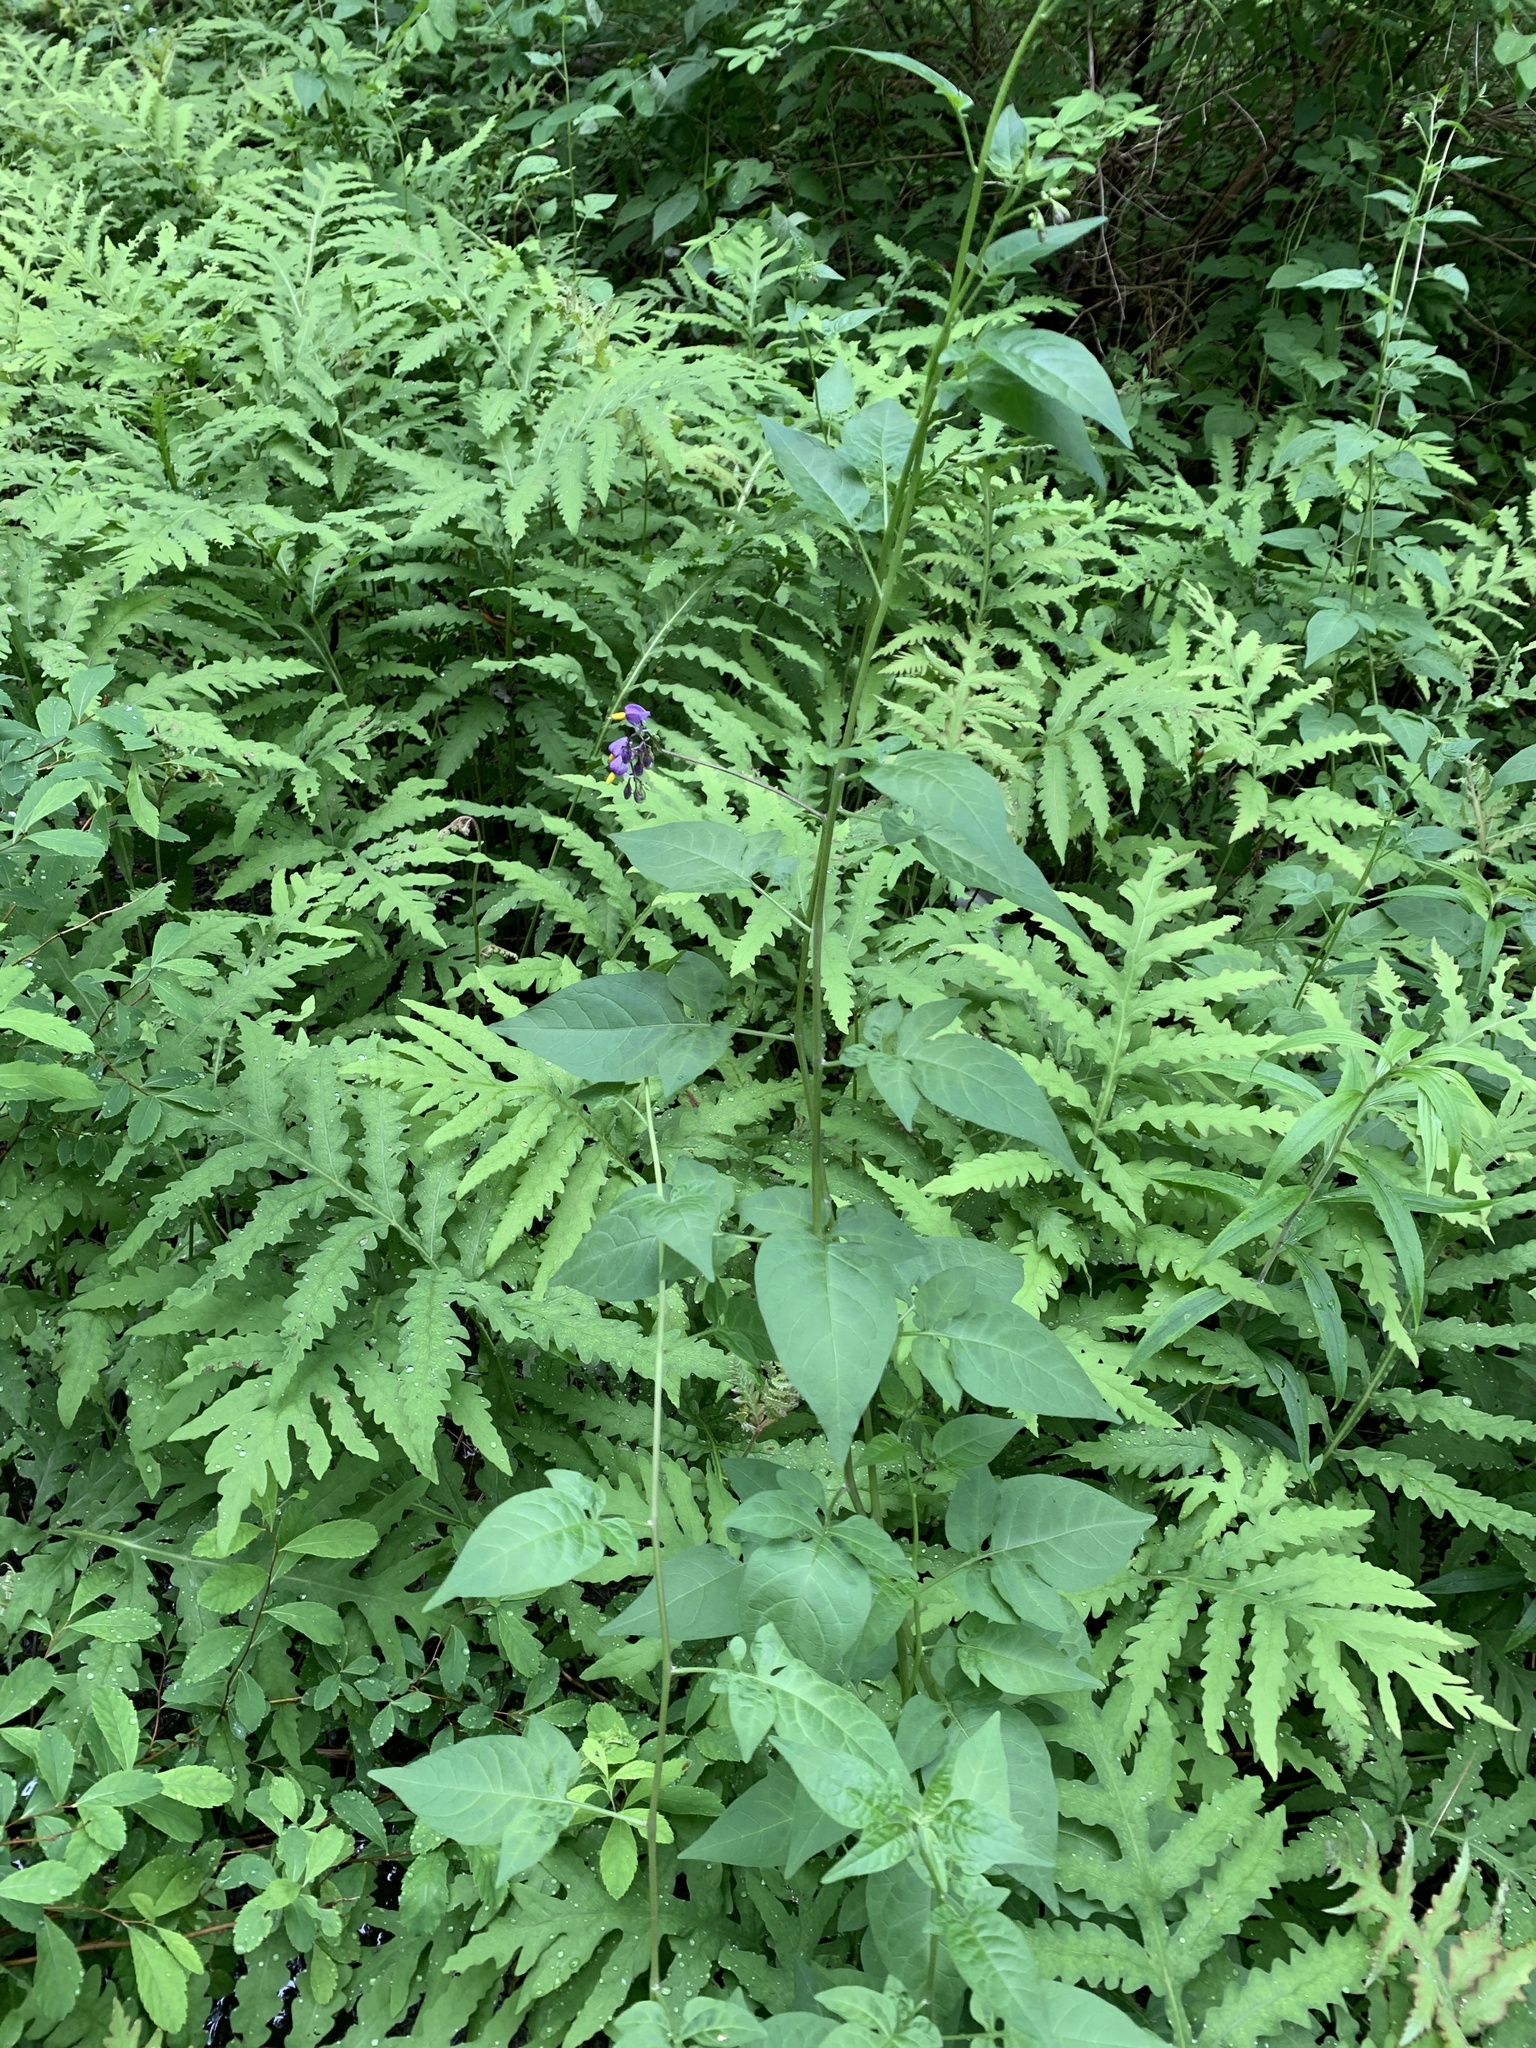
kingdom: Plantae
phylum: Tracheophyta
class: Magnoliopsida
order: Solanales
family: Solanaceae
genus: Solanum
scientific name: Solanum dulcamara
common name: Climbing nightshade
